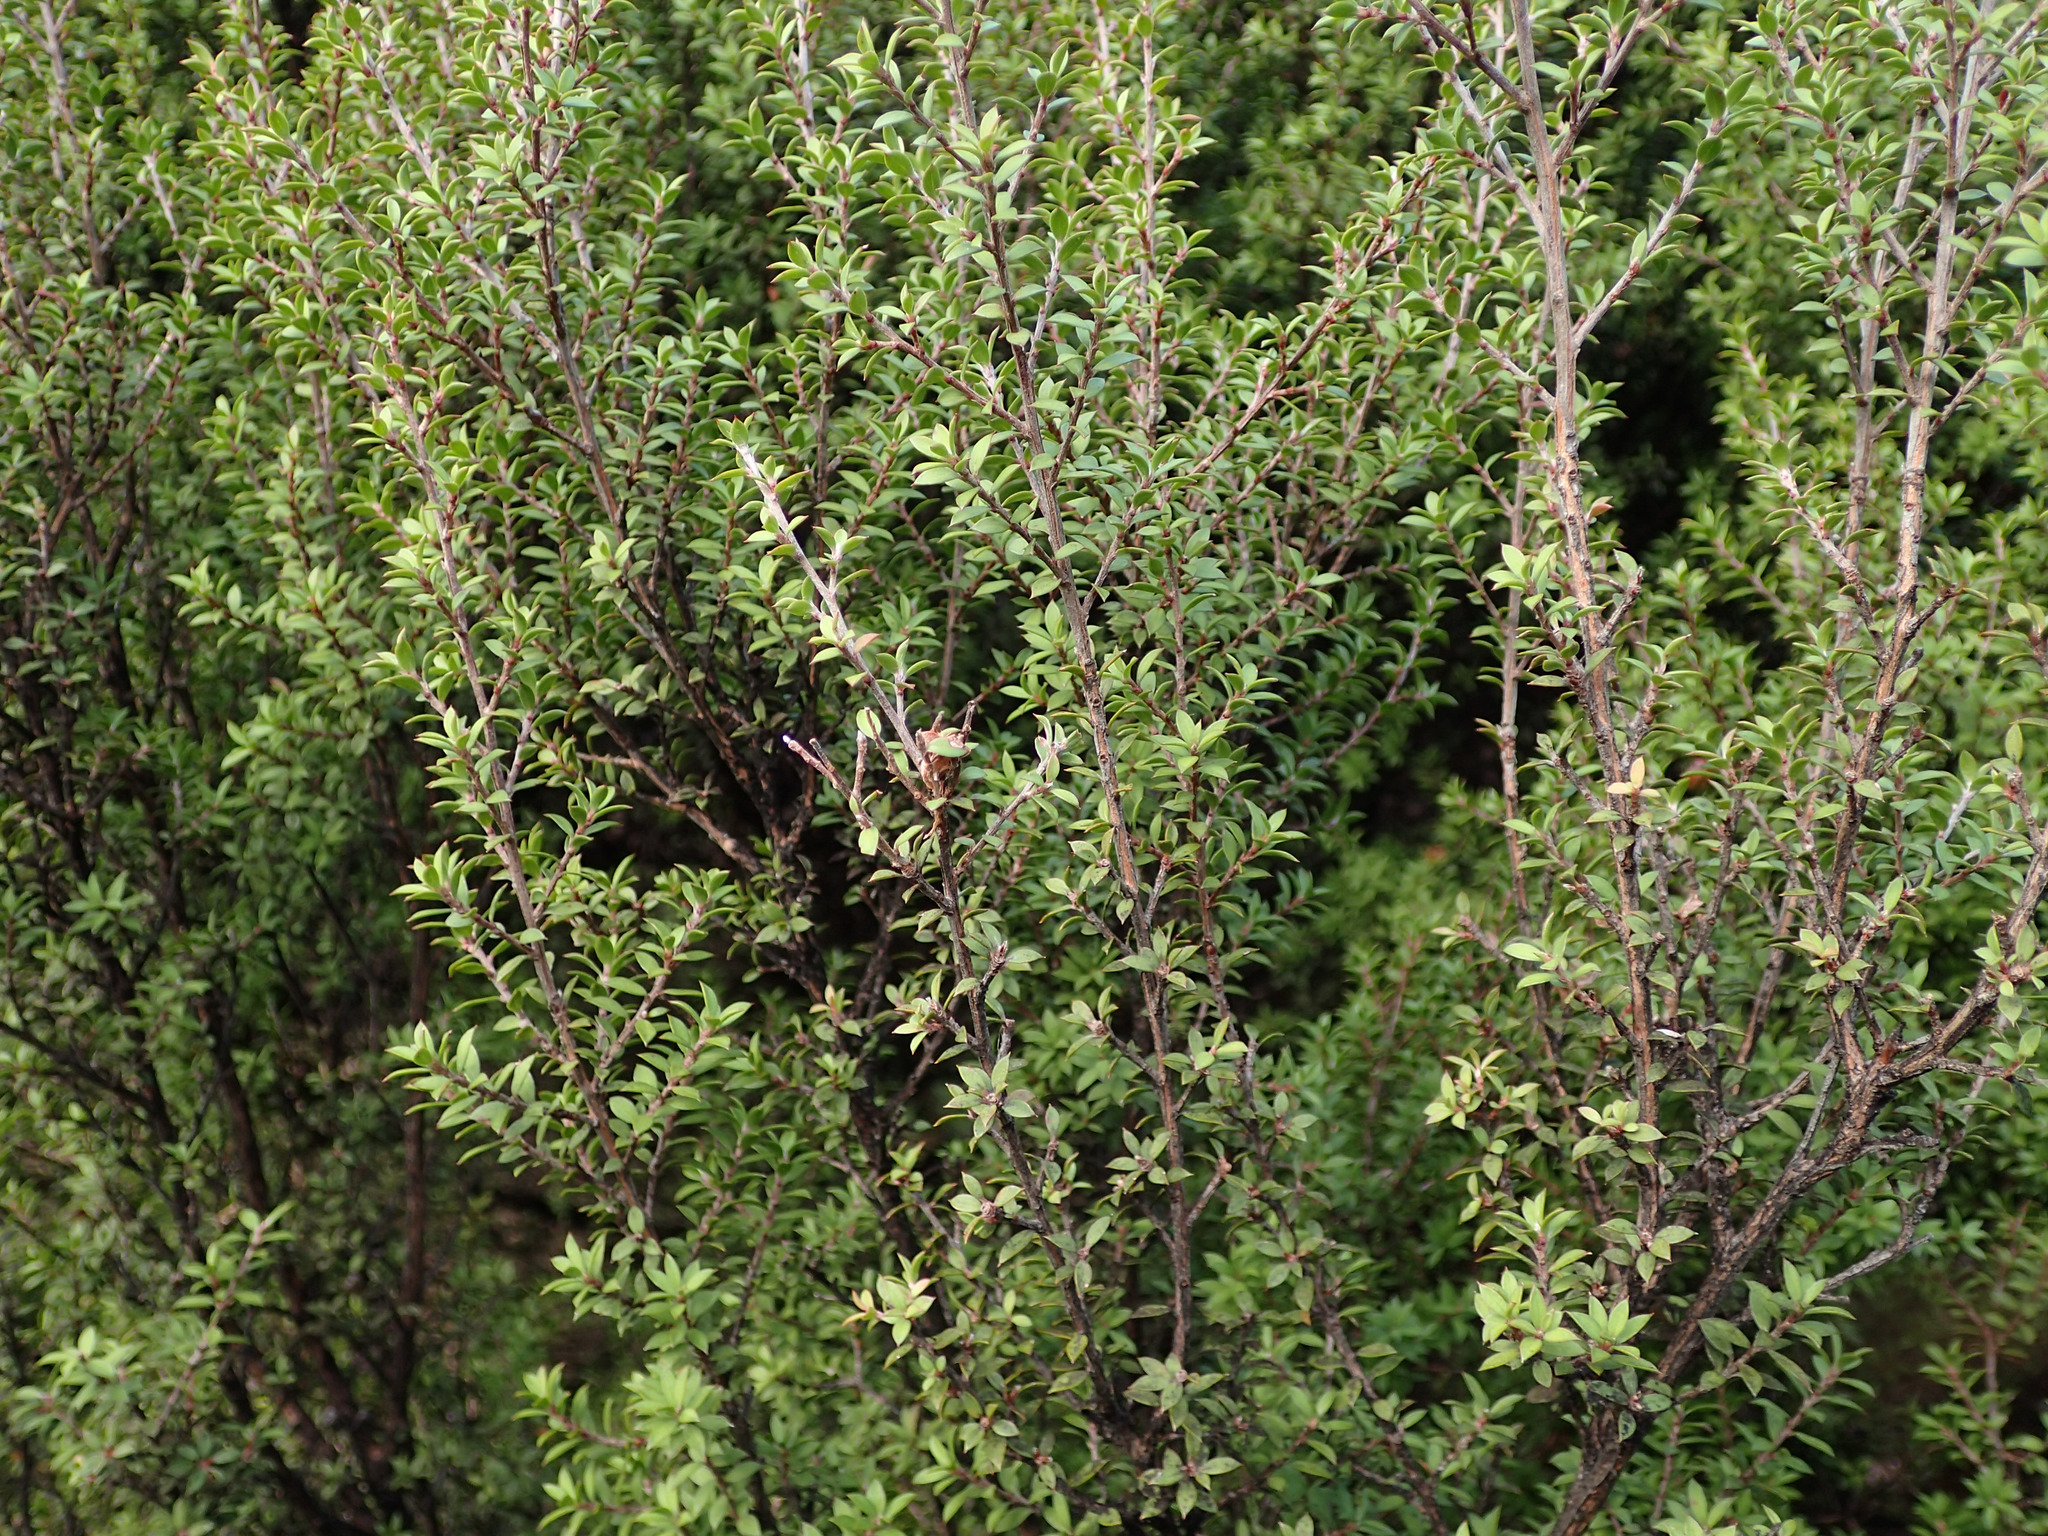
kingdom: Plantae
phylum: Tracheophyta
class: Magnoliopsida
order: Myrtales
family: Myrtaceae
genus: Leptospermum
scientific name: Leptospermum scoparium
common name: Broom tea-tree
